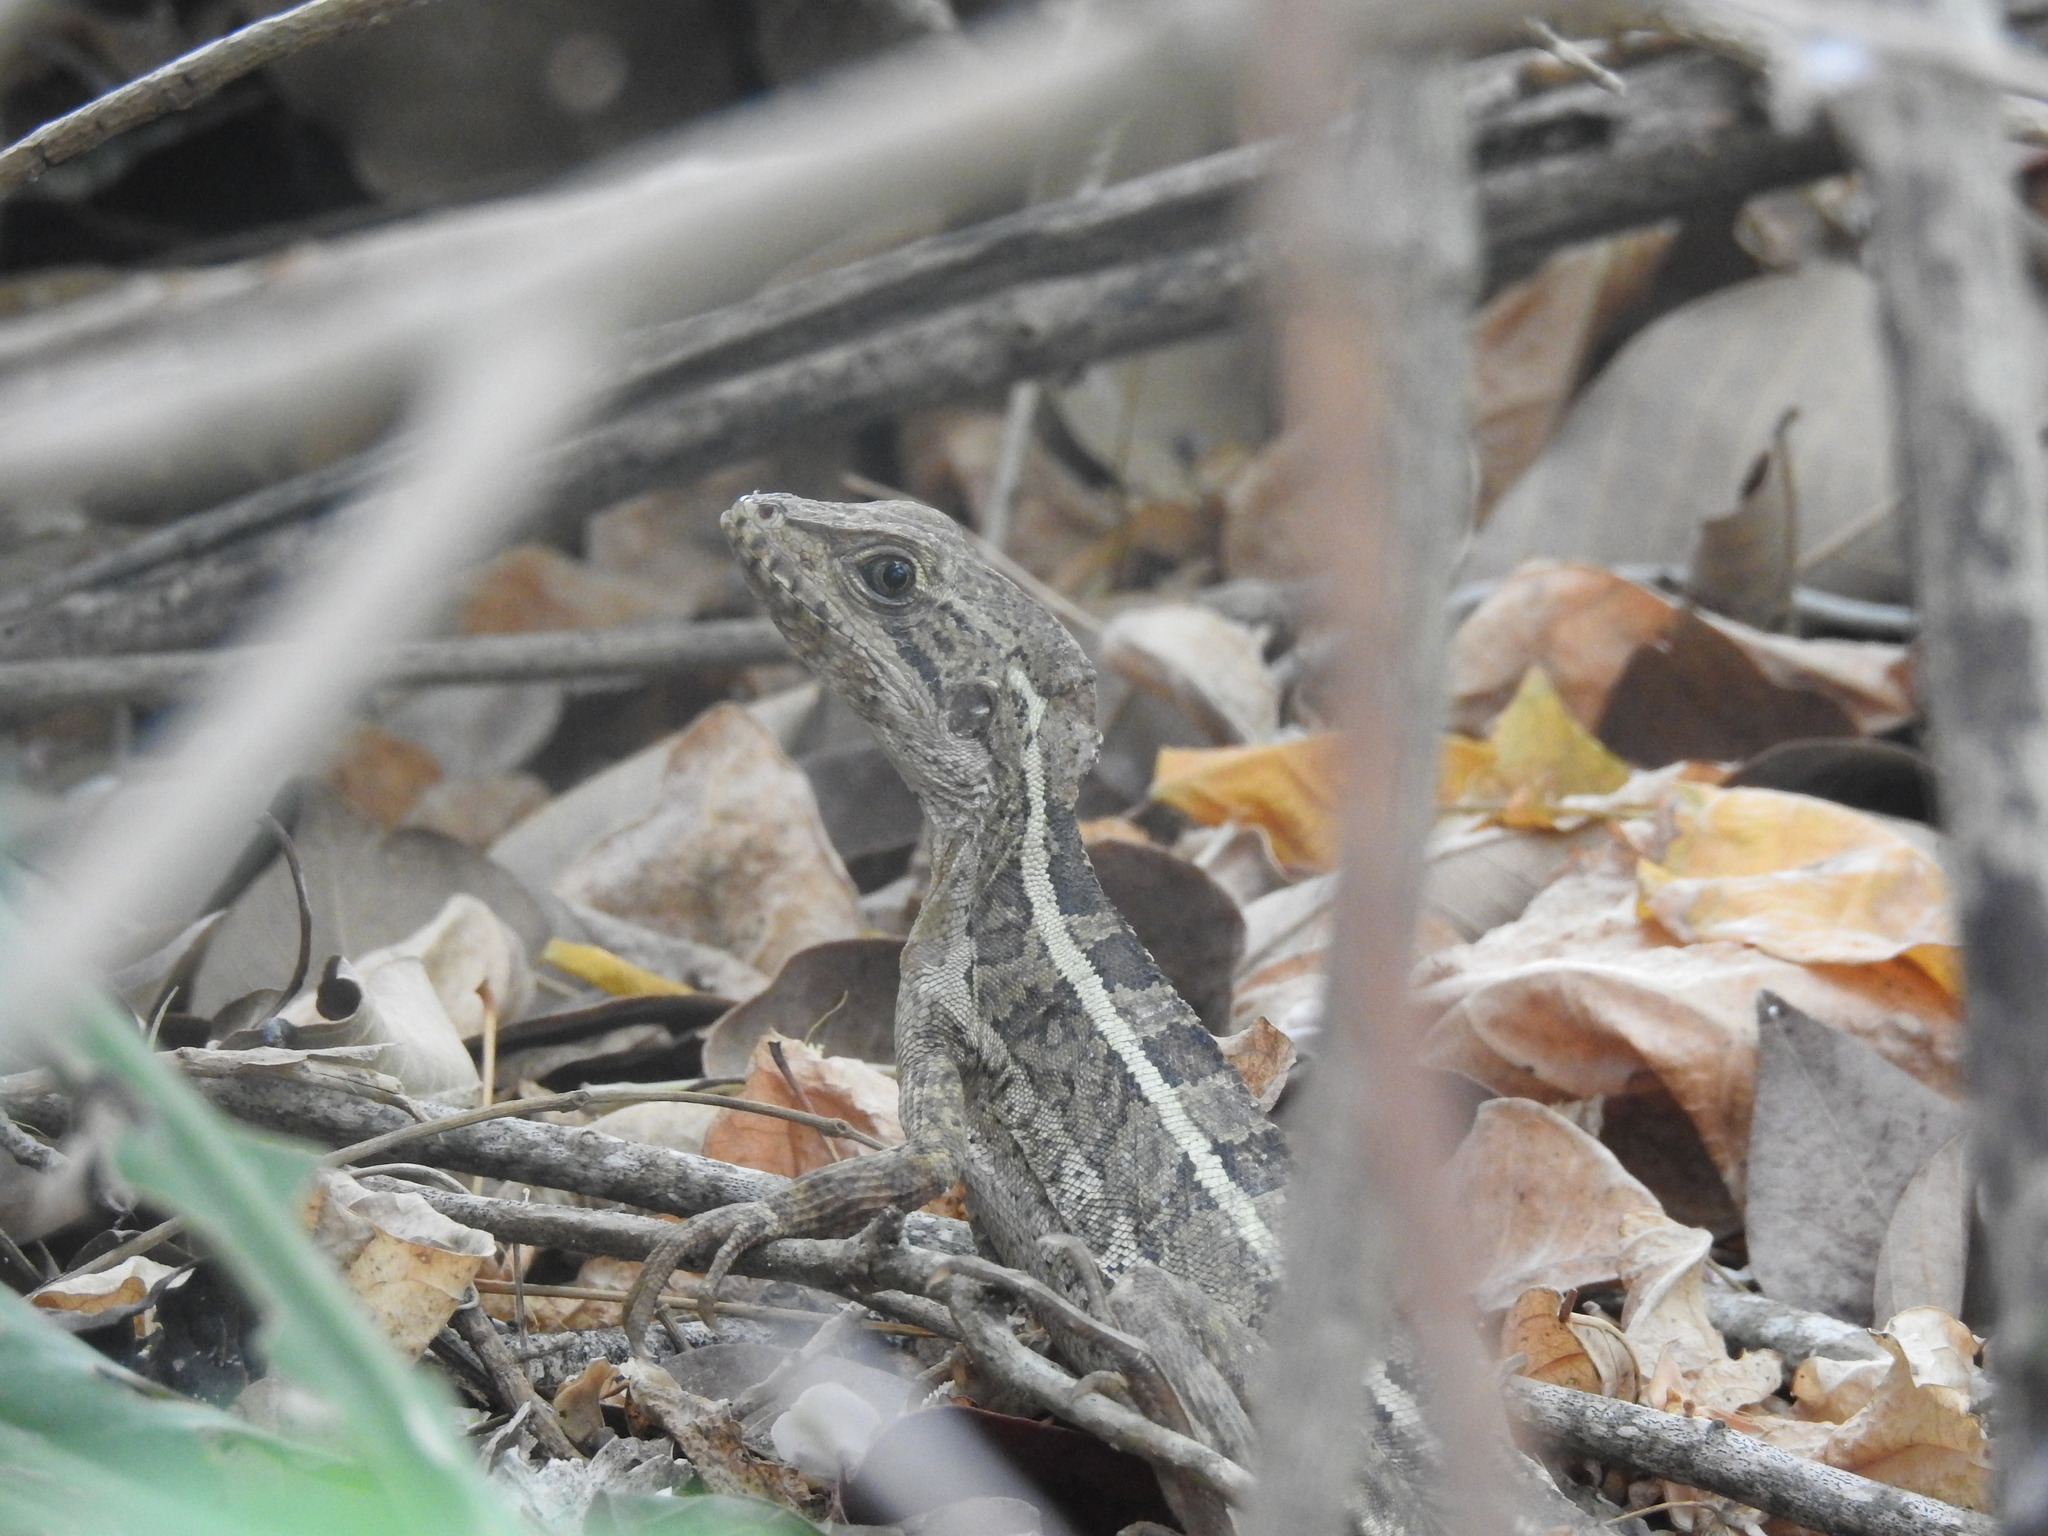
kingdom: Animalia
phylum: Chordata
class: Squamata
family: Corytophanidae
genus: Basiliscus
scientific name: Basiliscus vittatus
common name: Brown basilisk
